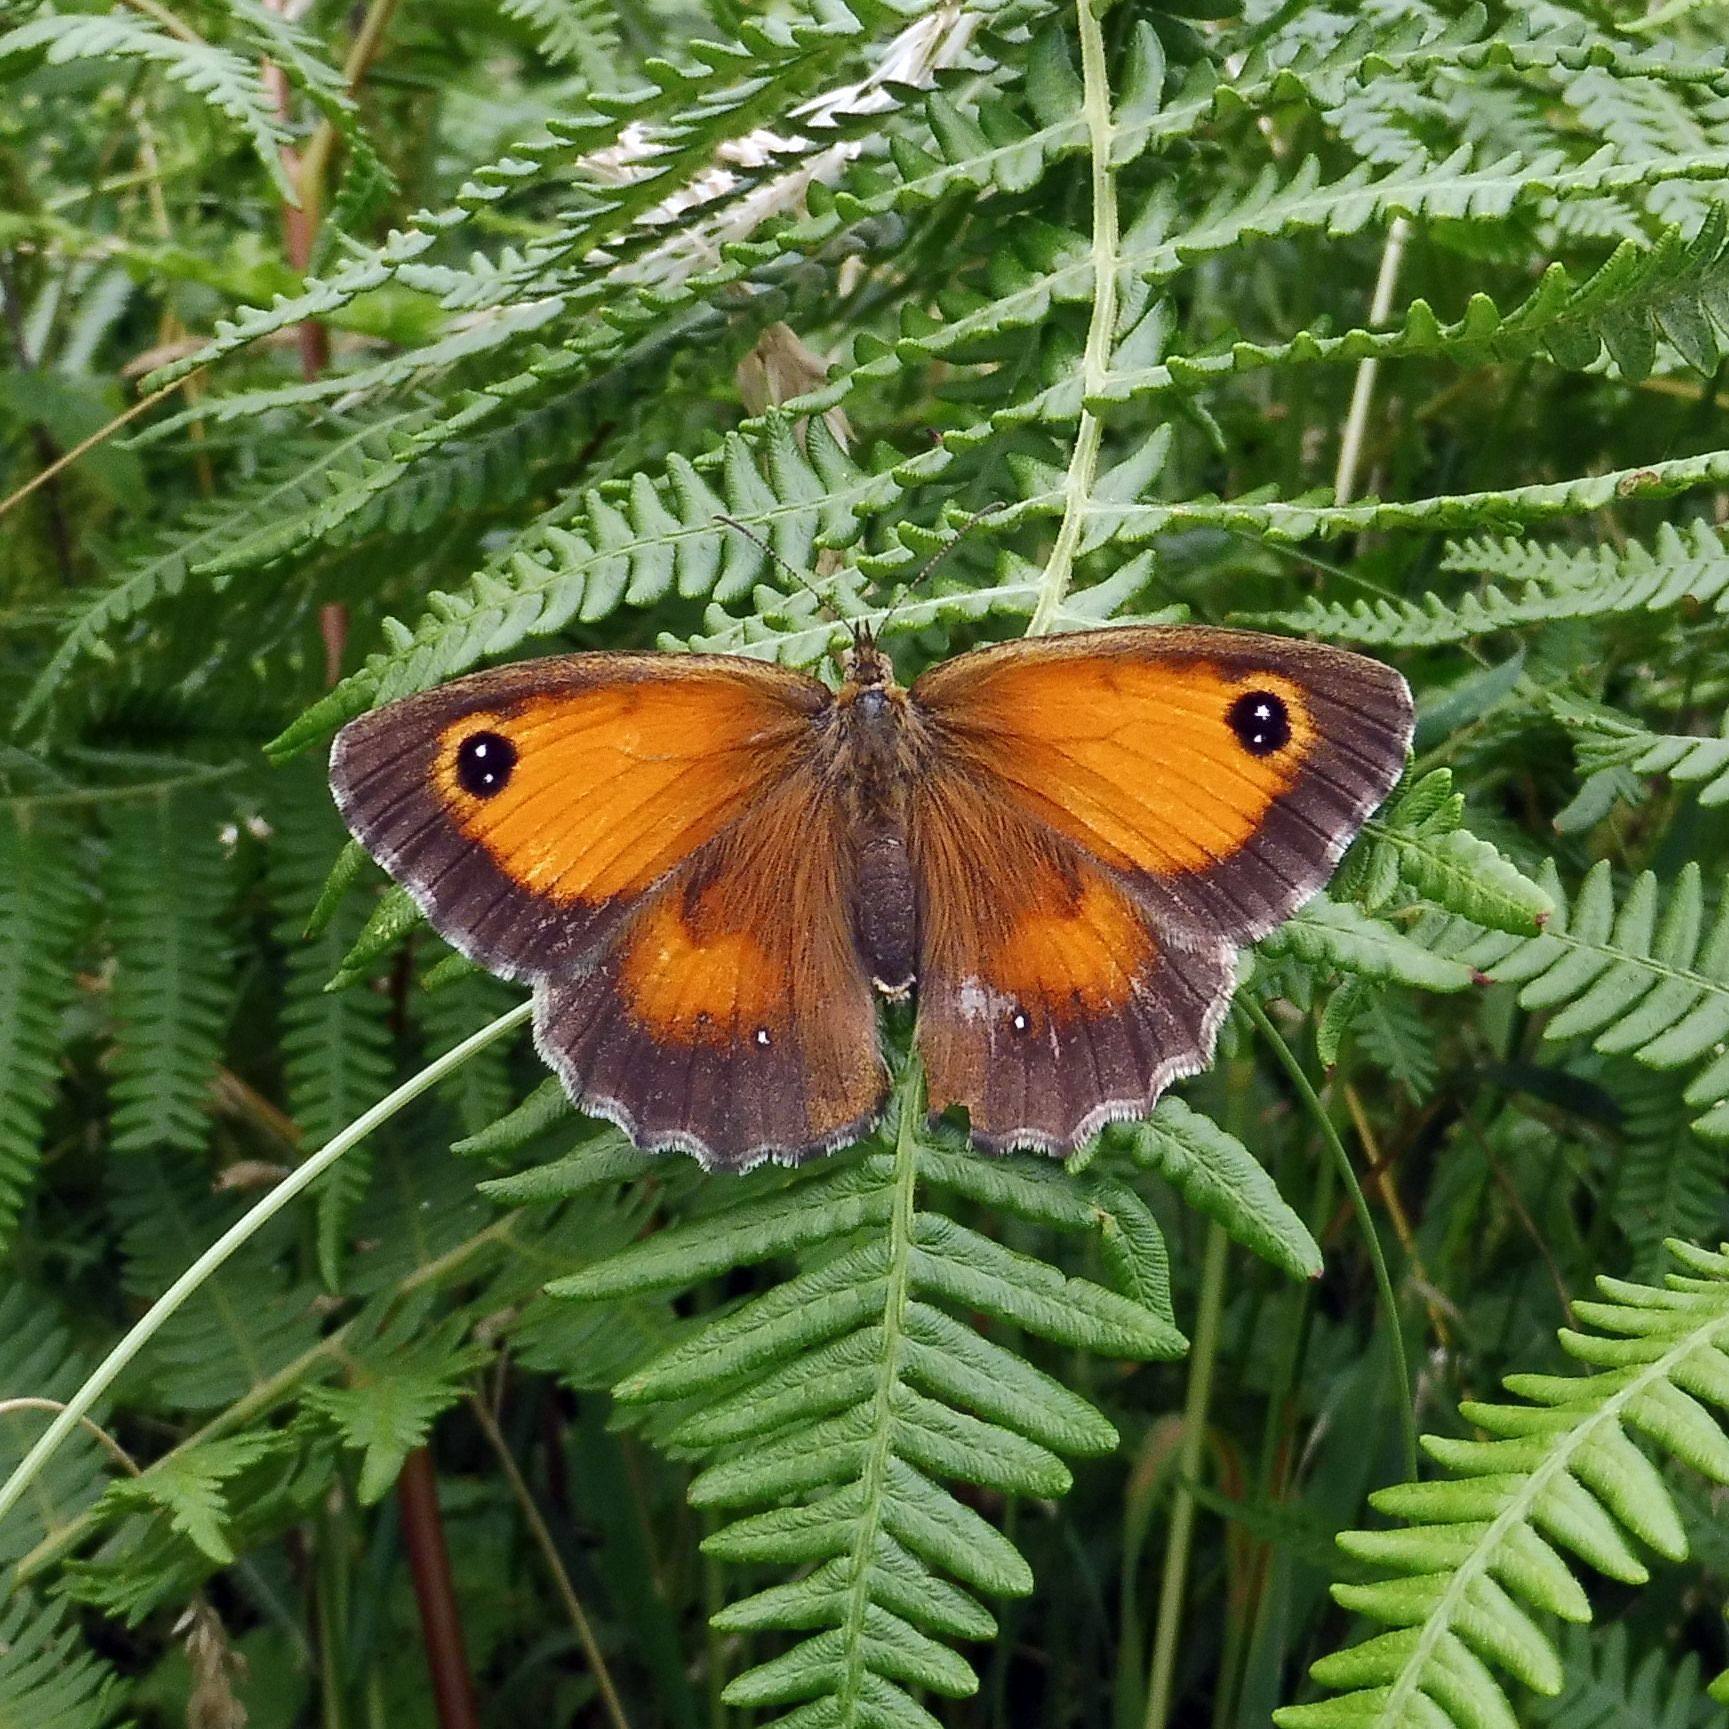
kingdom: Animalia
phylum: Arthropoda
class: Insecta
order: Lepidoptera
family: Nymphalidae
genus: Pyronia
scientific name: Pyronia tithonus
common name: Gatekeeper
